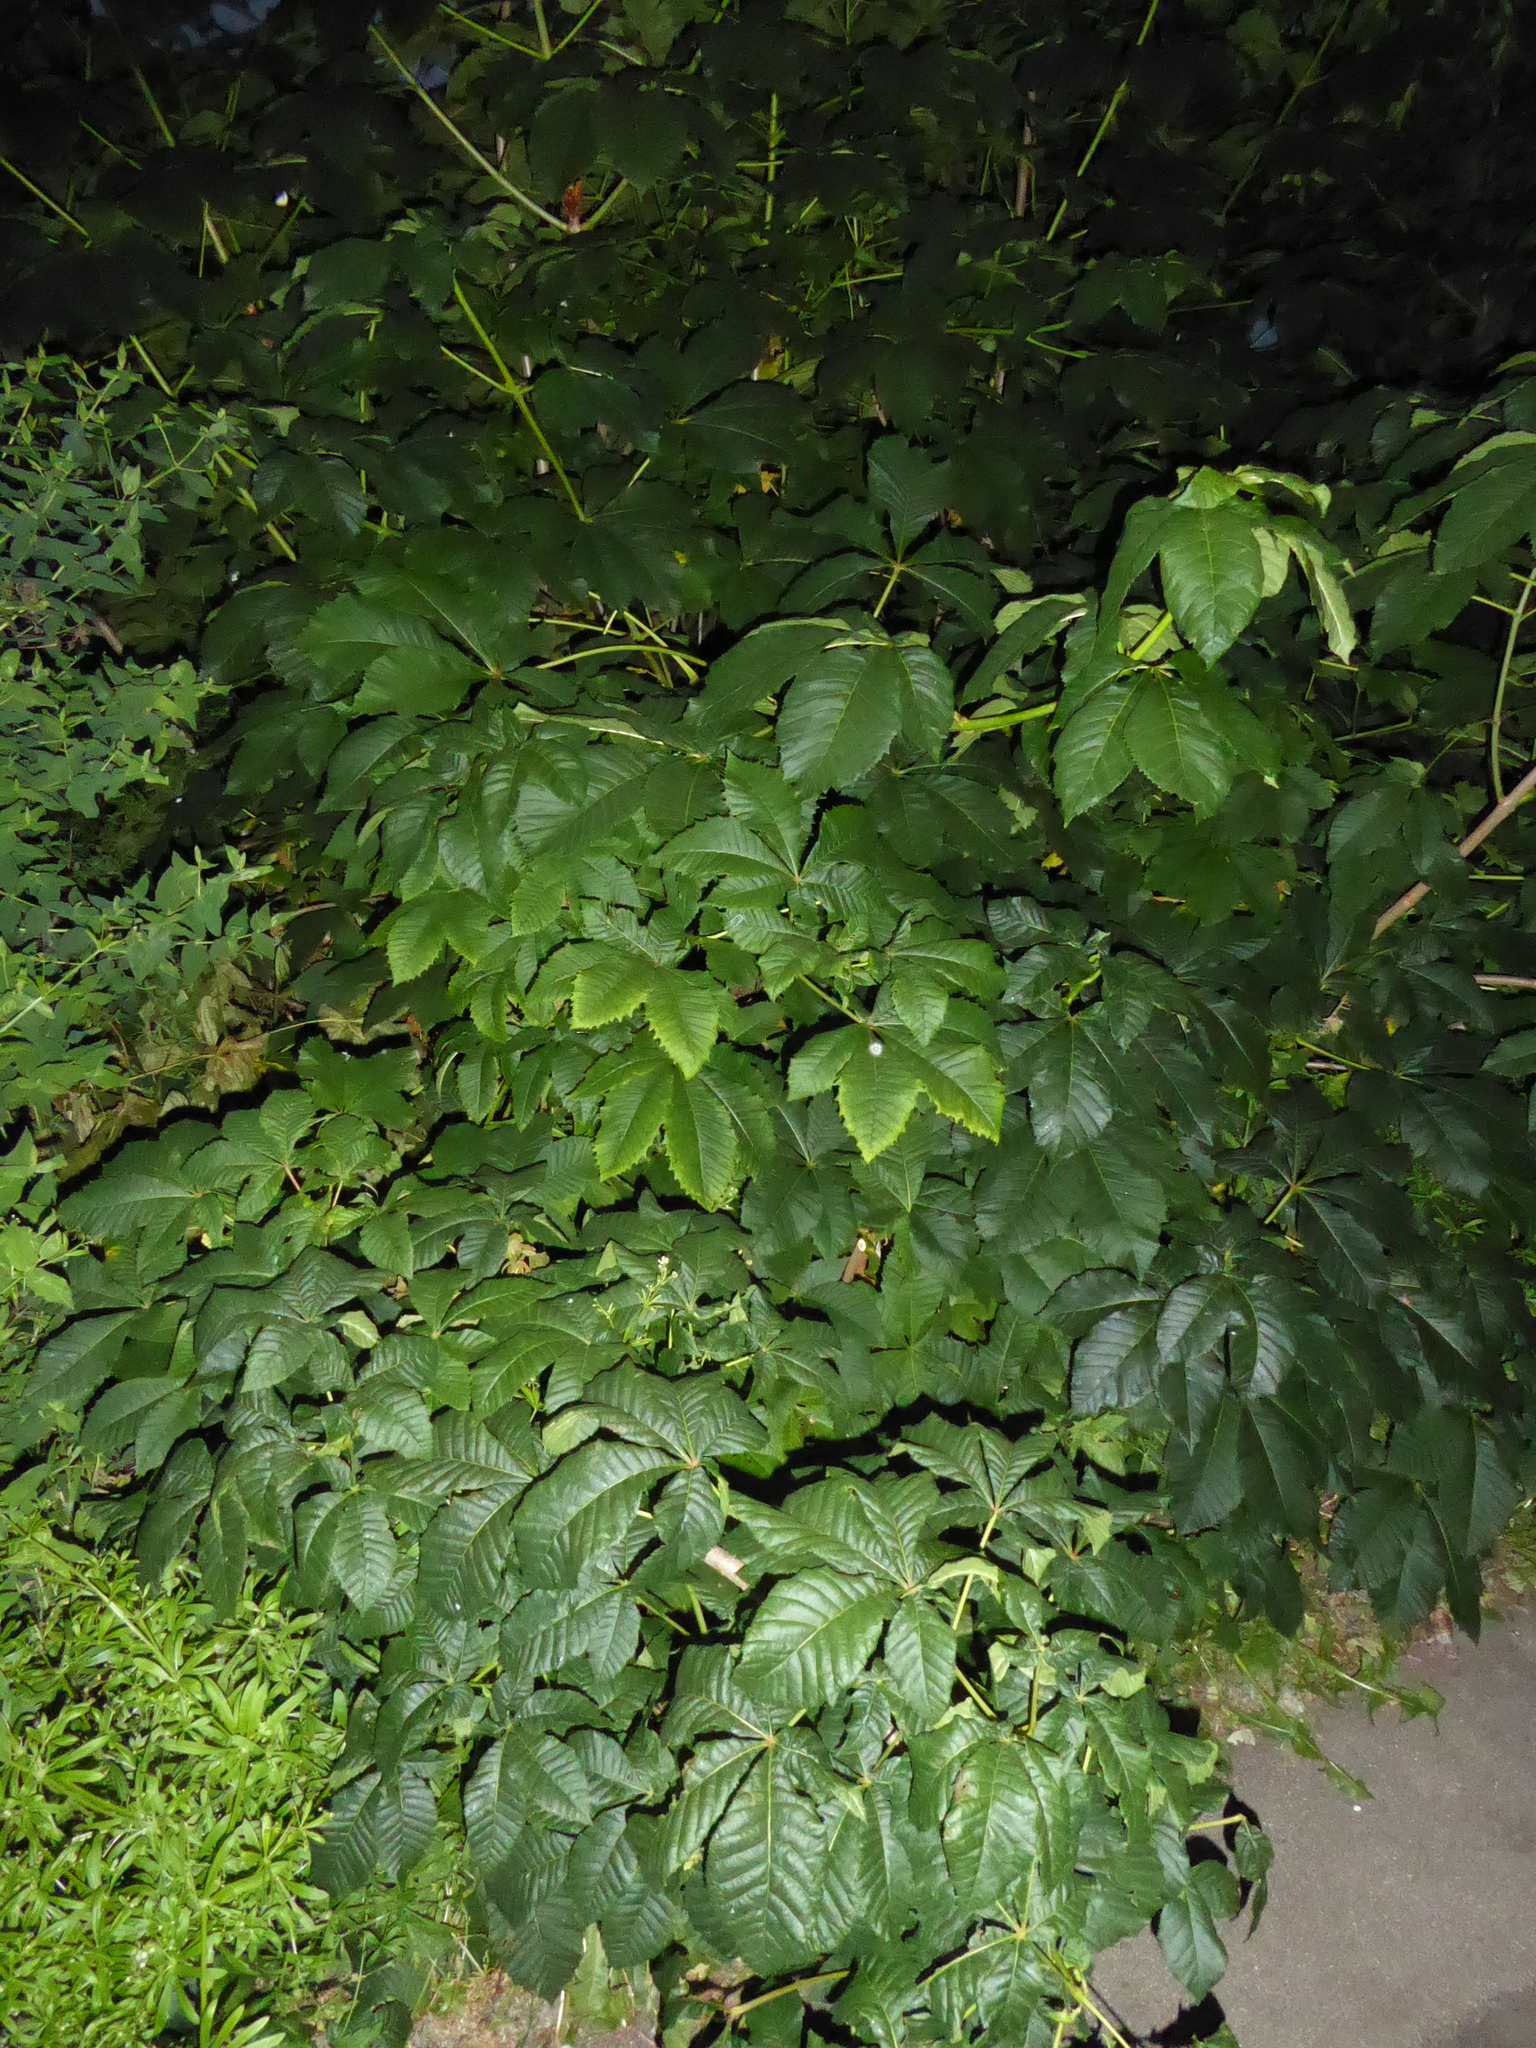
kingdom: Plantae
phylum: Tracheophyta
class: Magnoliopsida
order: Sapindales
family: Sapindaceae
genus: Aesculus
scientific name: Aesculus carnea
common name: Red horse-chestnut
